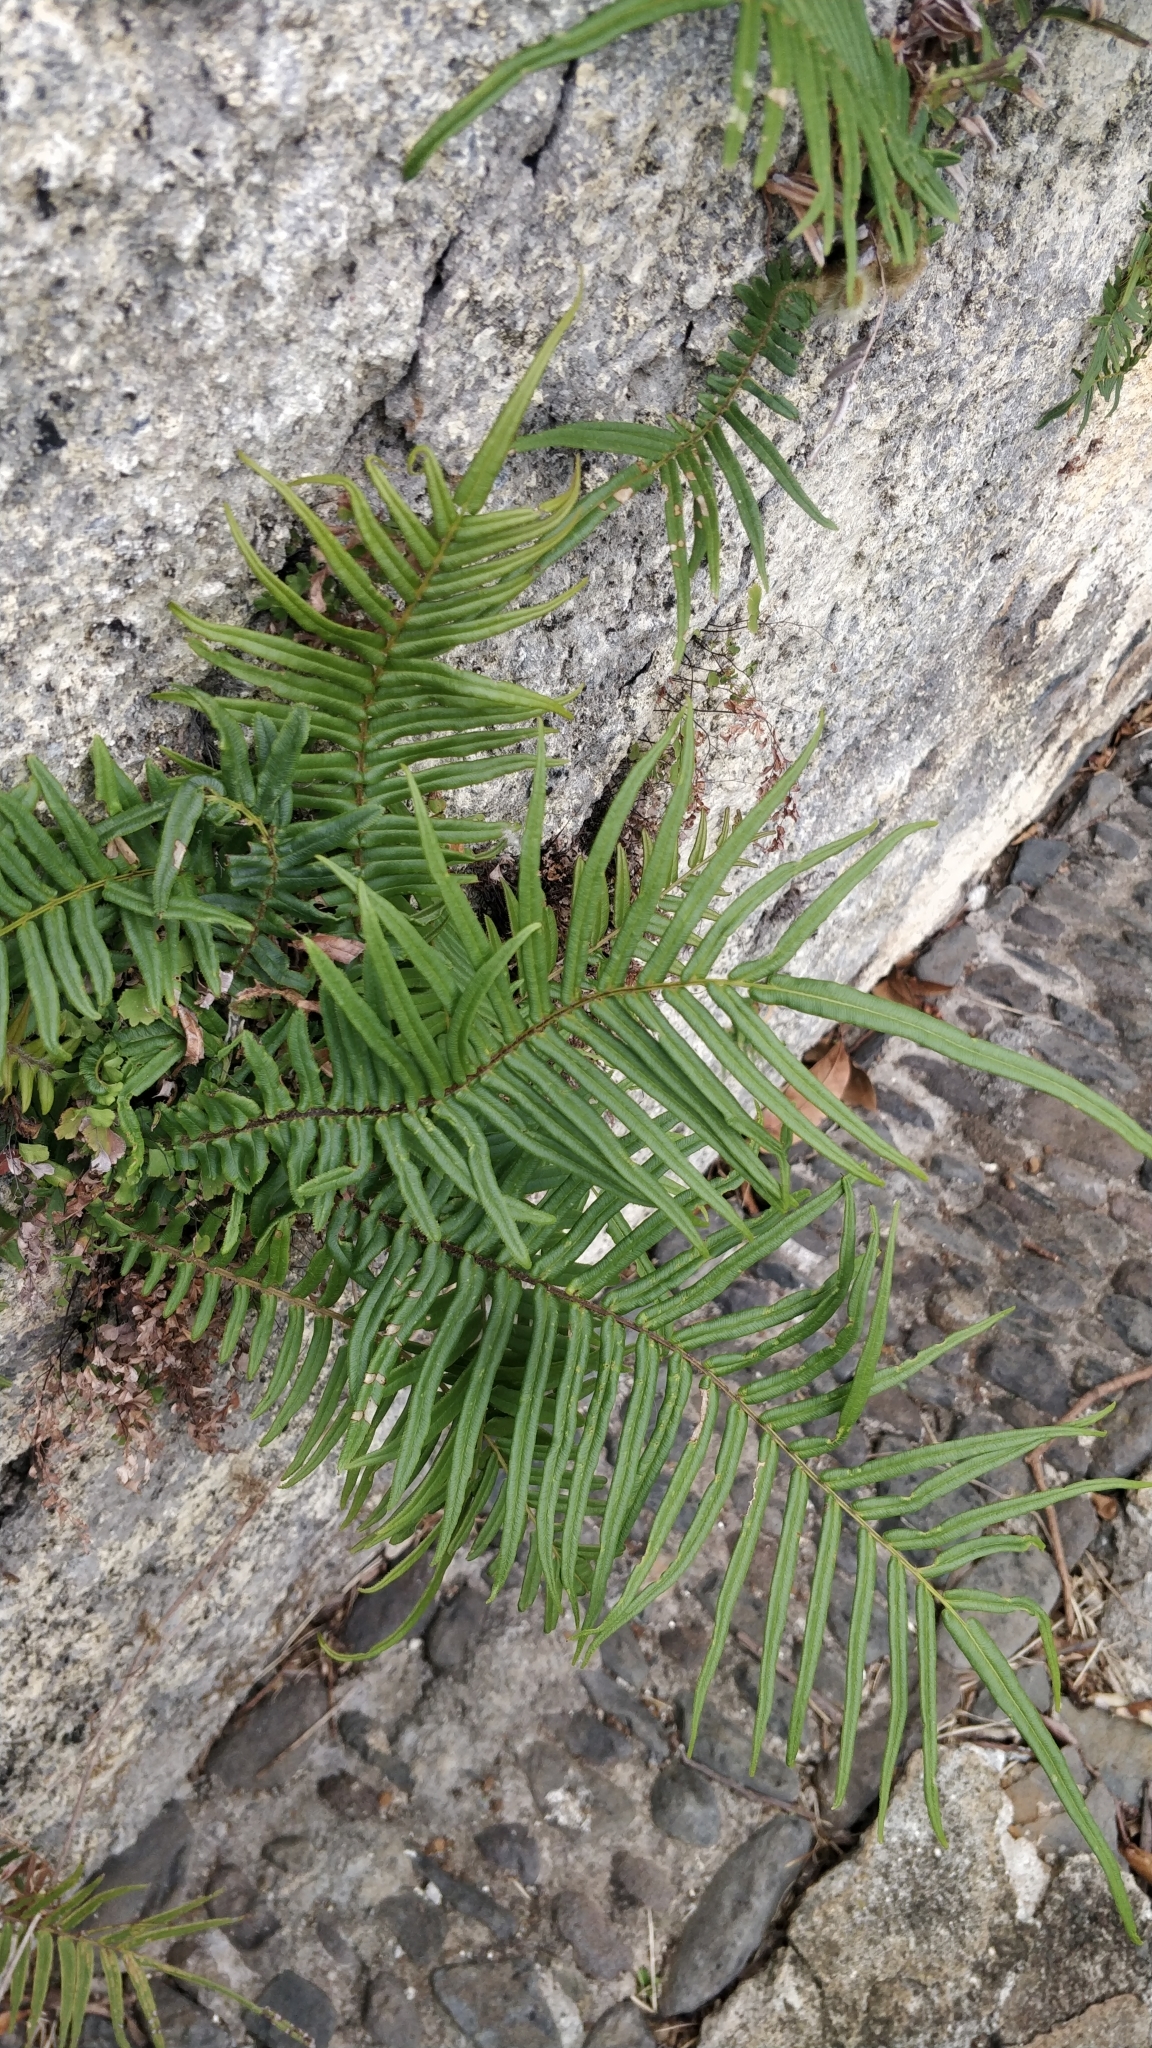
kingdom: Plantae
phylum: Tracheophyta
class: Polypodiopsida
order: Polypodiales
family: Pteridaceae
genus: Pteris
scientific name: Pteris vittata
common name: Ladder brake
